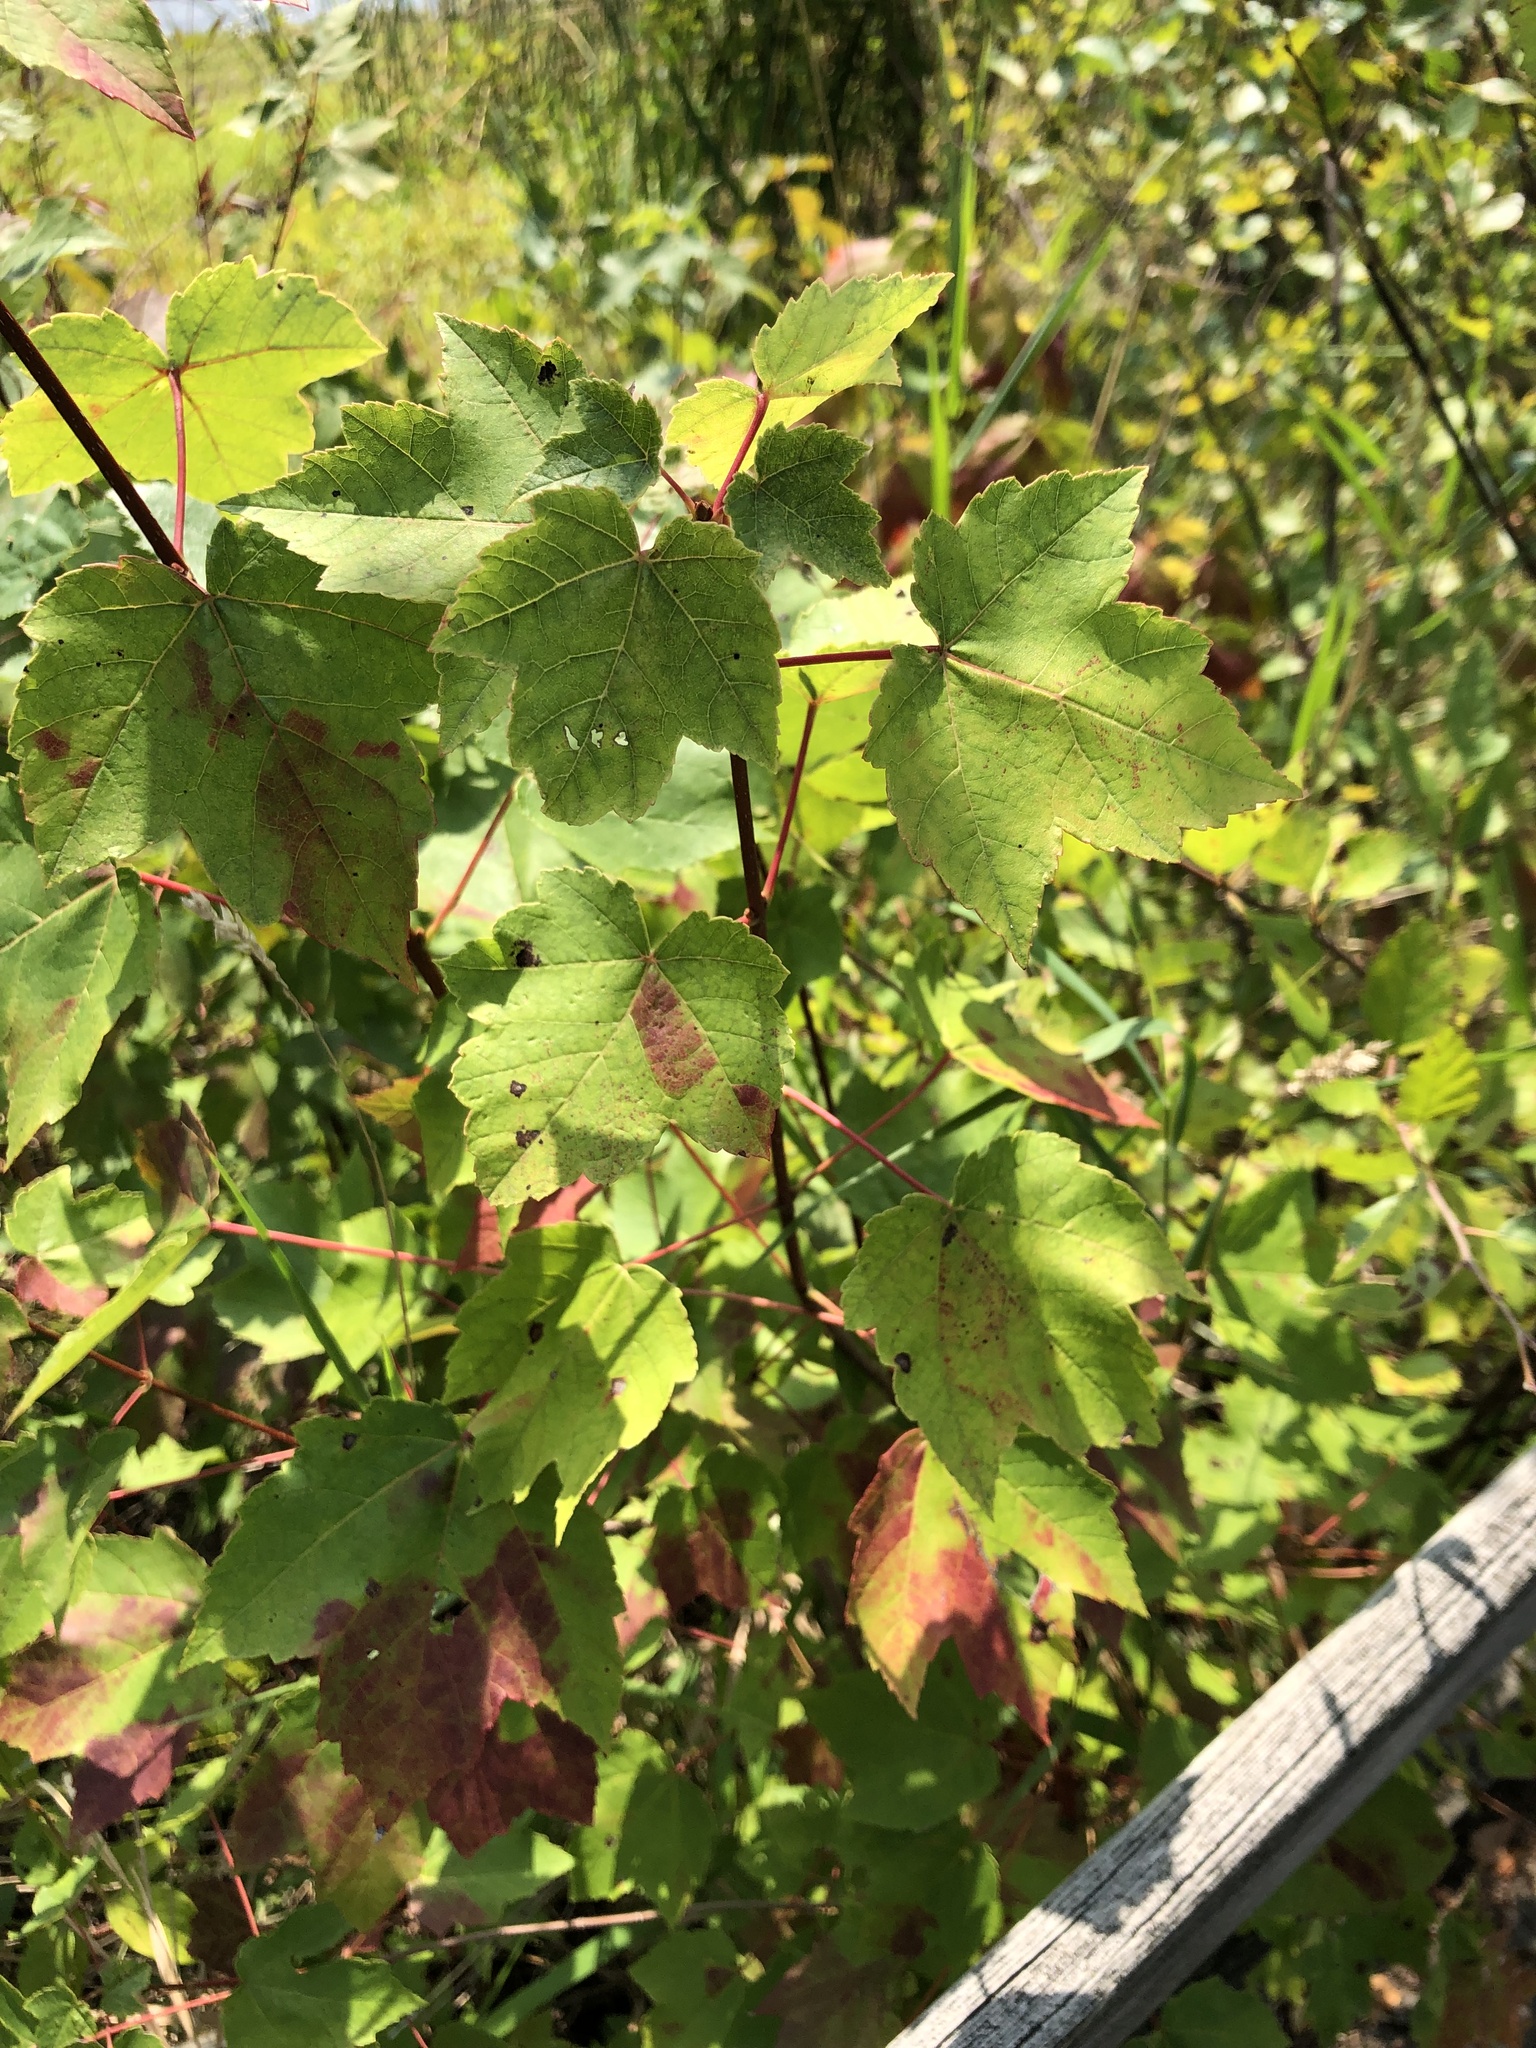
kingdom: Plantae
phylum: Tracheophyta
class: Magnoliopsida
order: Sapindales
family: Sapindaceae
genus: Acer
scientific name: Acer rubrum
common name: Red maple
